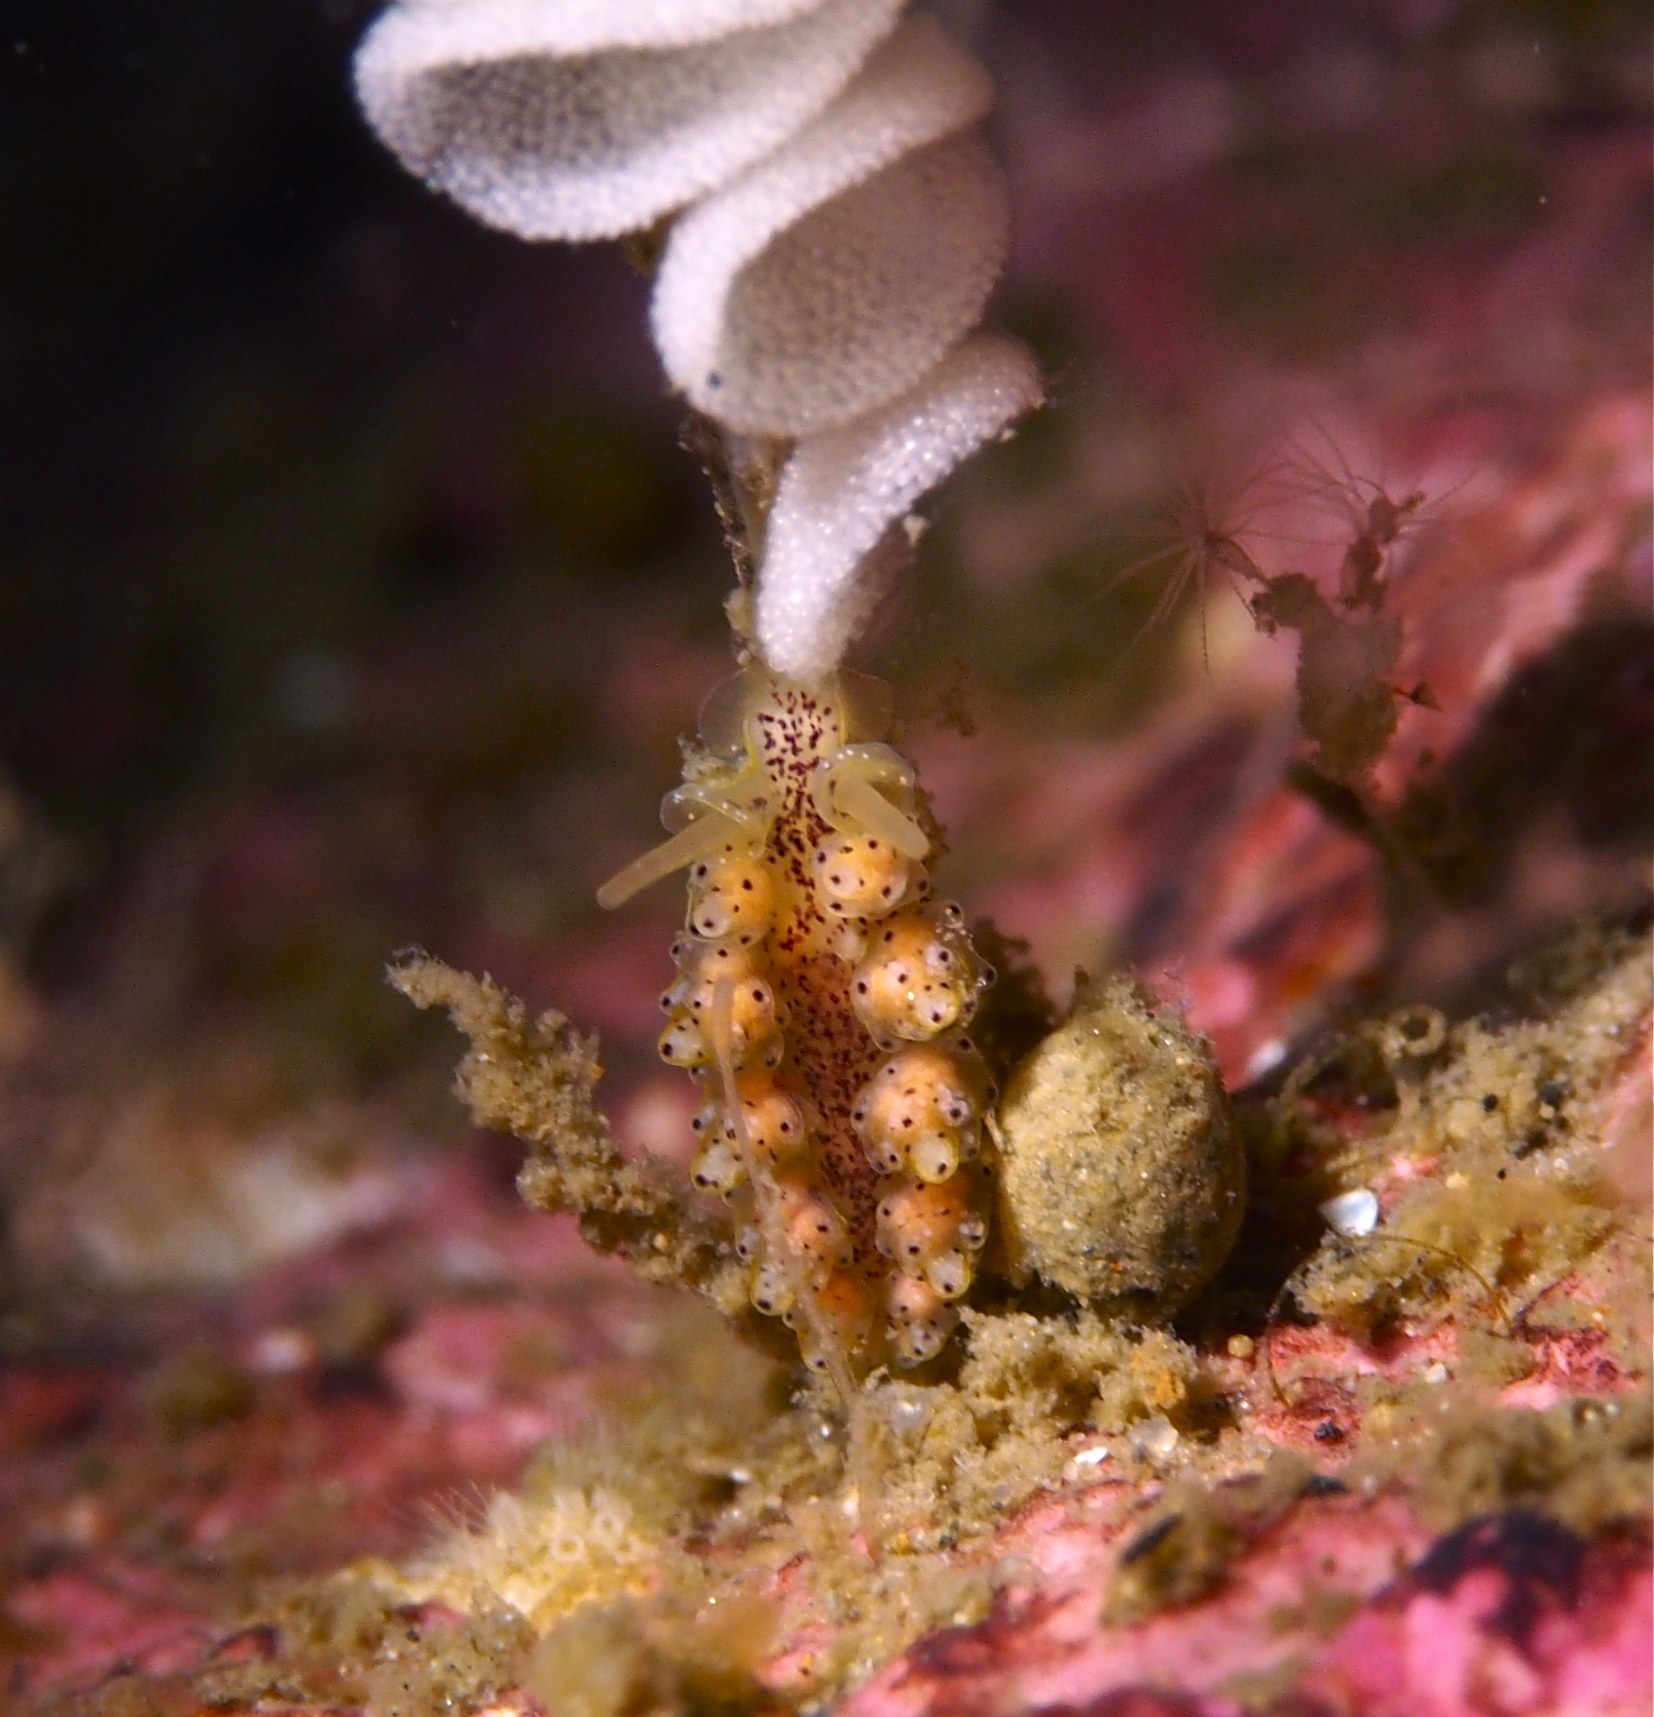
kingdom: Animalia
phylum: Mollusca
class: Gastropoda
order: Nudibranchia
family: Dotidae
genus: Doto
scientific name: Doto dunnei
